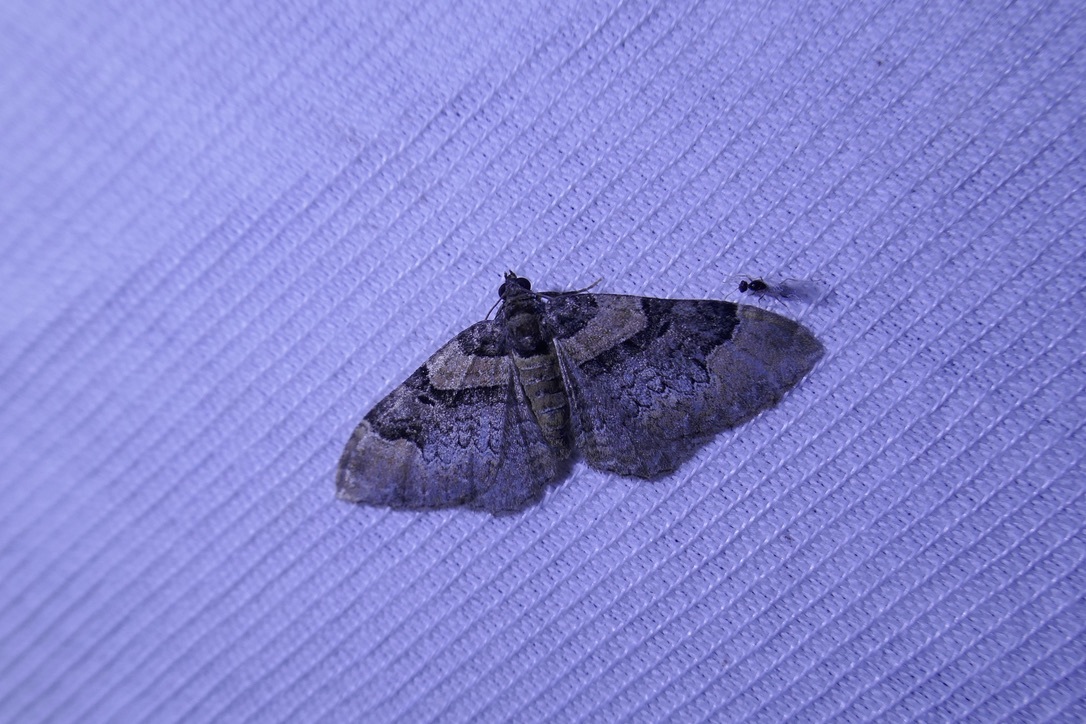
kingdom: Animalia
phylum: Arthropoda
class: Insecta
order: Lepidoptera
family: Geometridae
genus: Catarhoe
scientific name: Catarhoe rubidata
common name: Ruddy carpet
